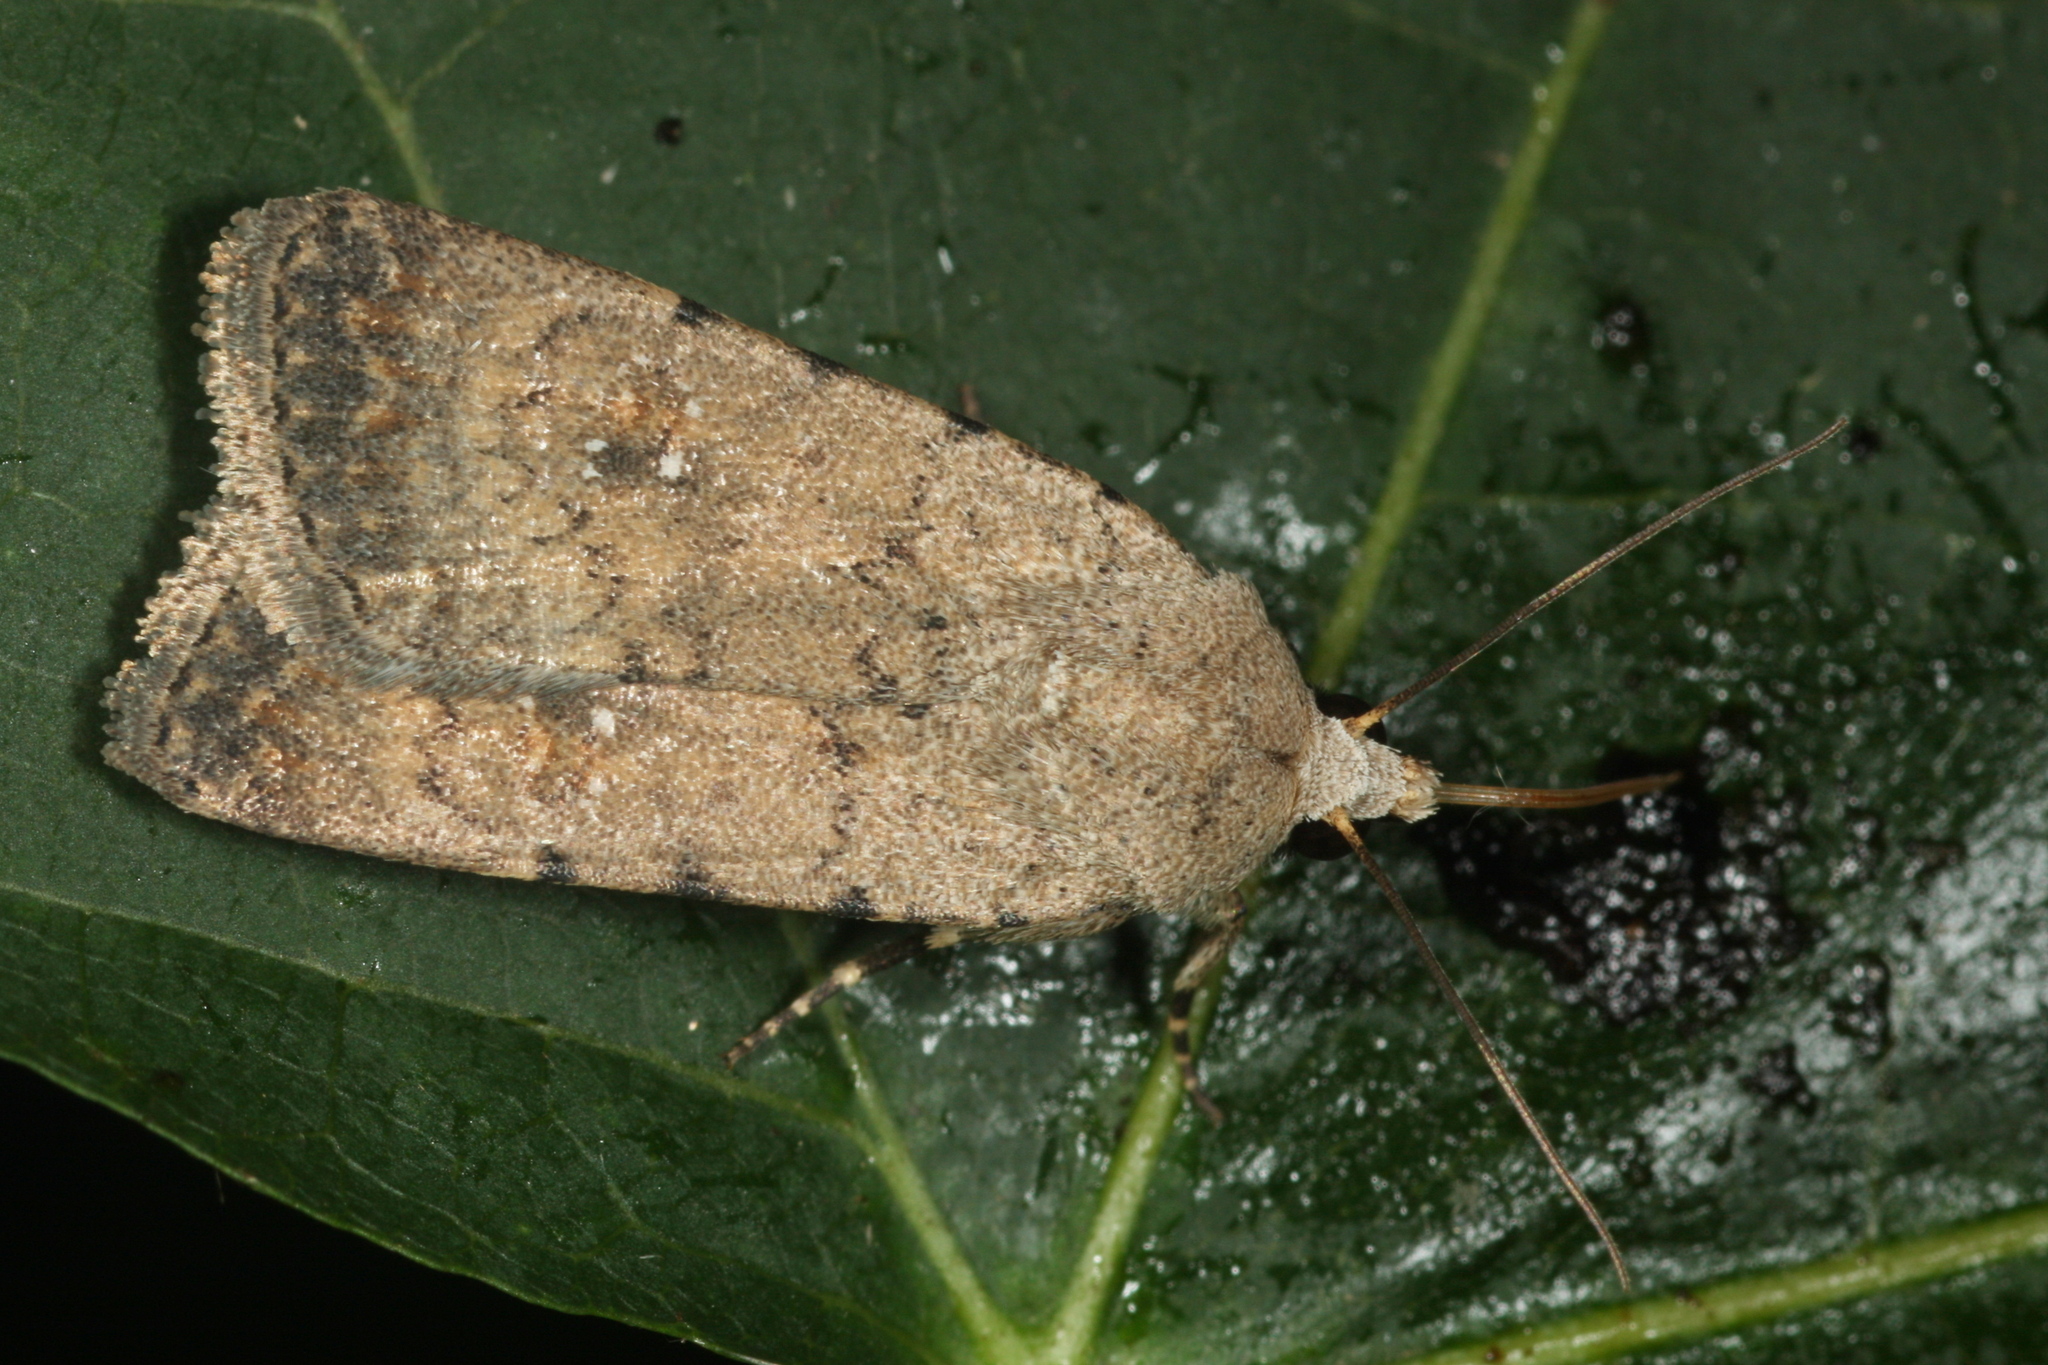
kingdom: Animalia
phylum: Arthropoda
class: Insecta
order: Lepidoptera
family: Noctuidae
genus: Caradrina
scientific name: Caradrina clavipalpis
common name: Pale mottled willow
